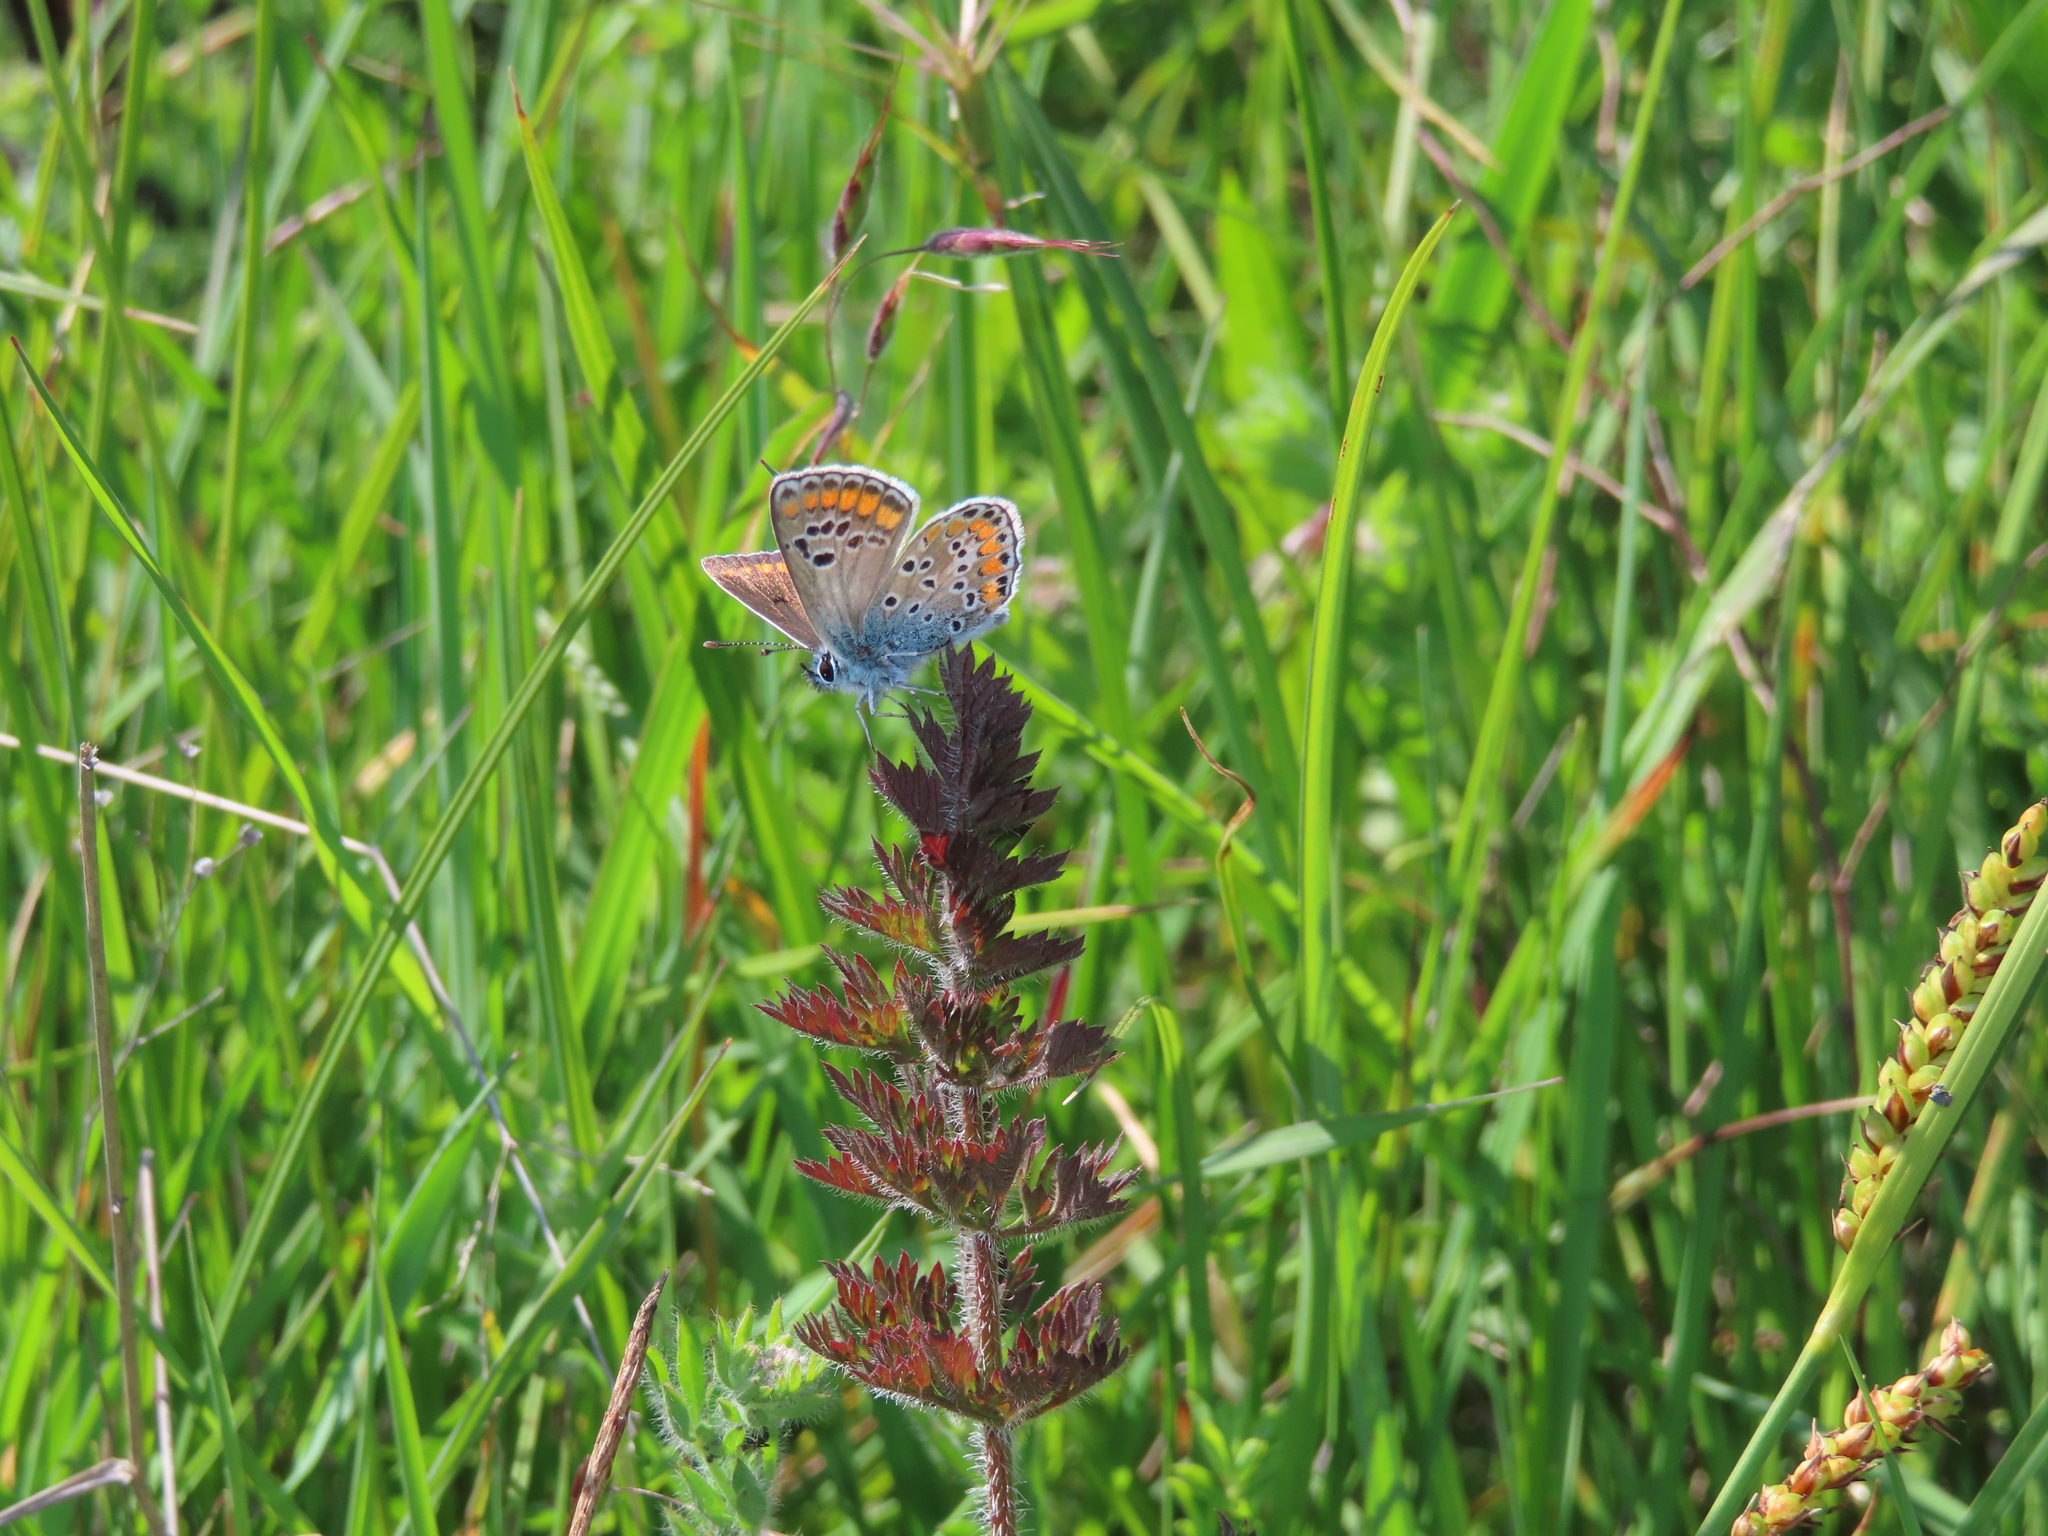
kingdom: Animalia
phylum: Arthropoda
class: Insecta
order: Lepidoptera
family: Lycaenidae
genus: Aricia
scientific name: Aricia agestis
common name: Brown argus
